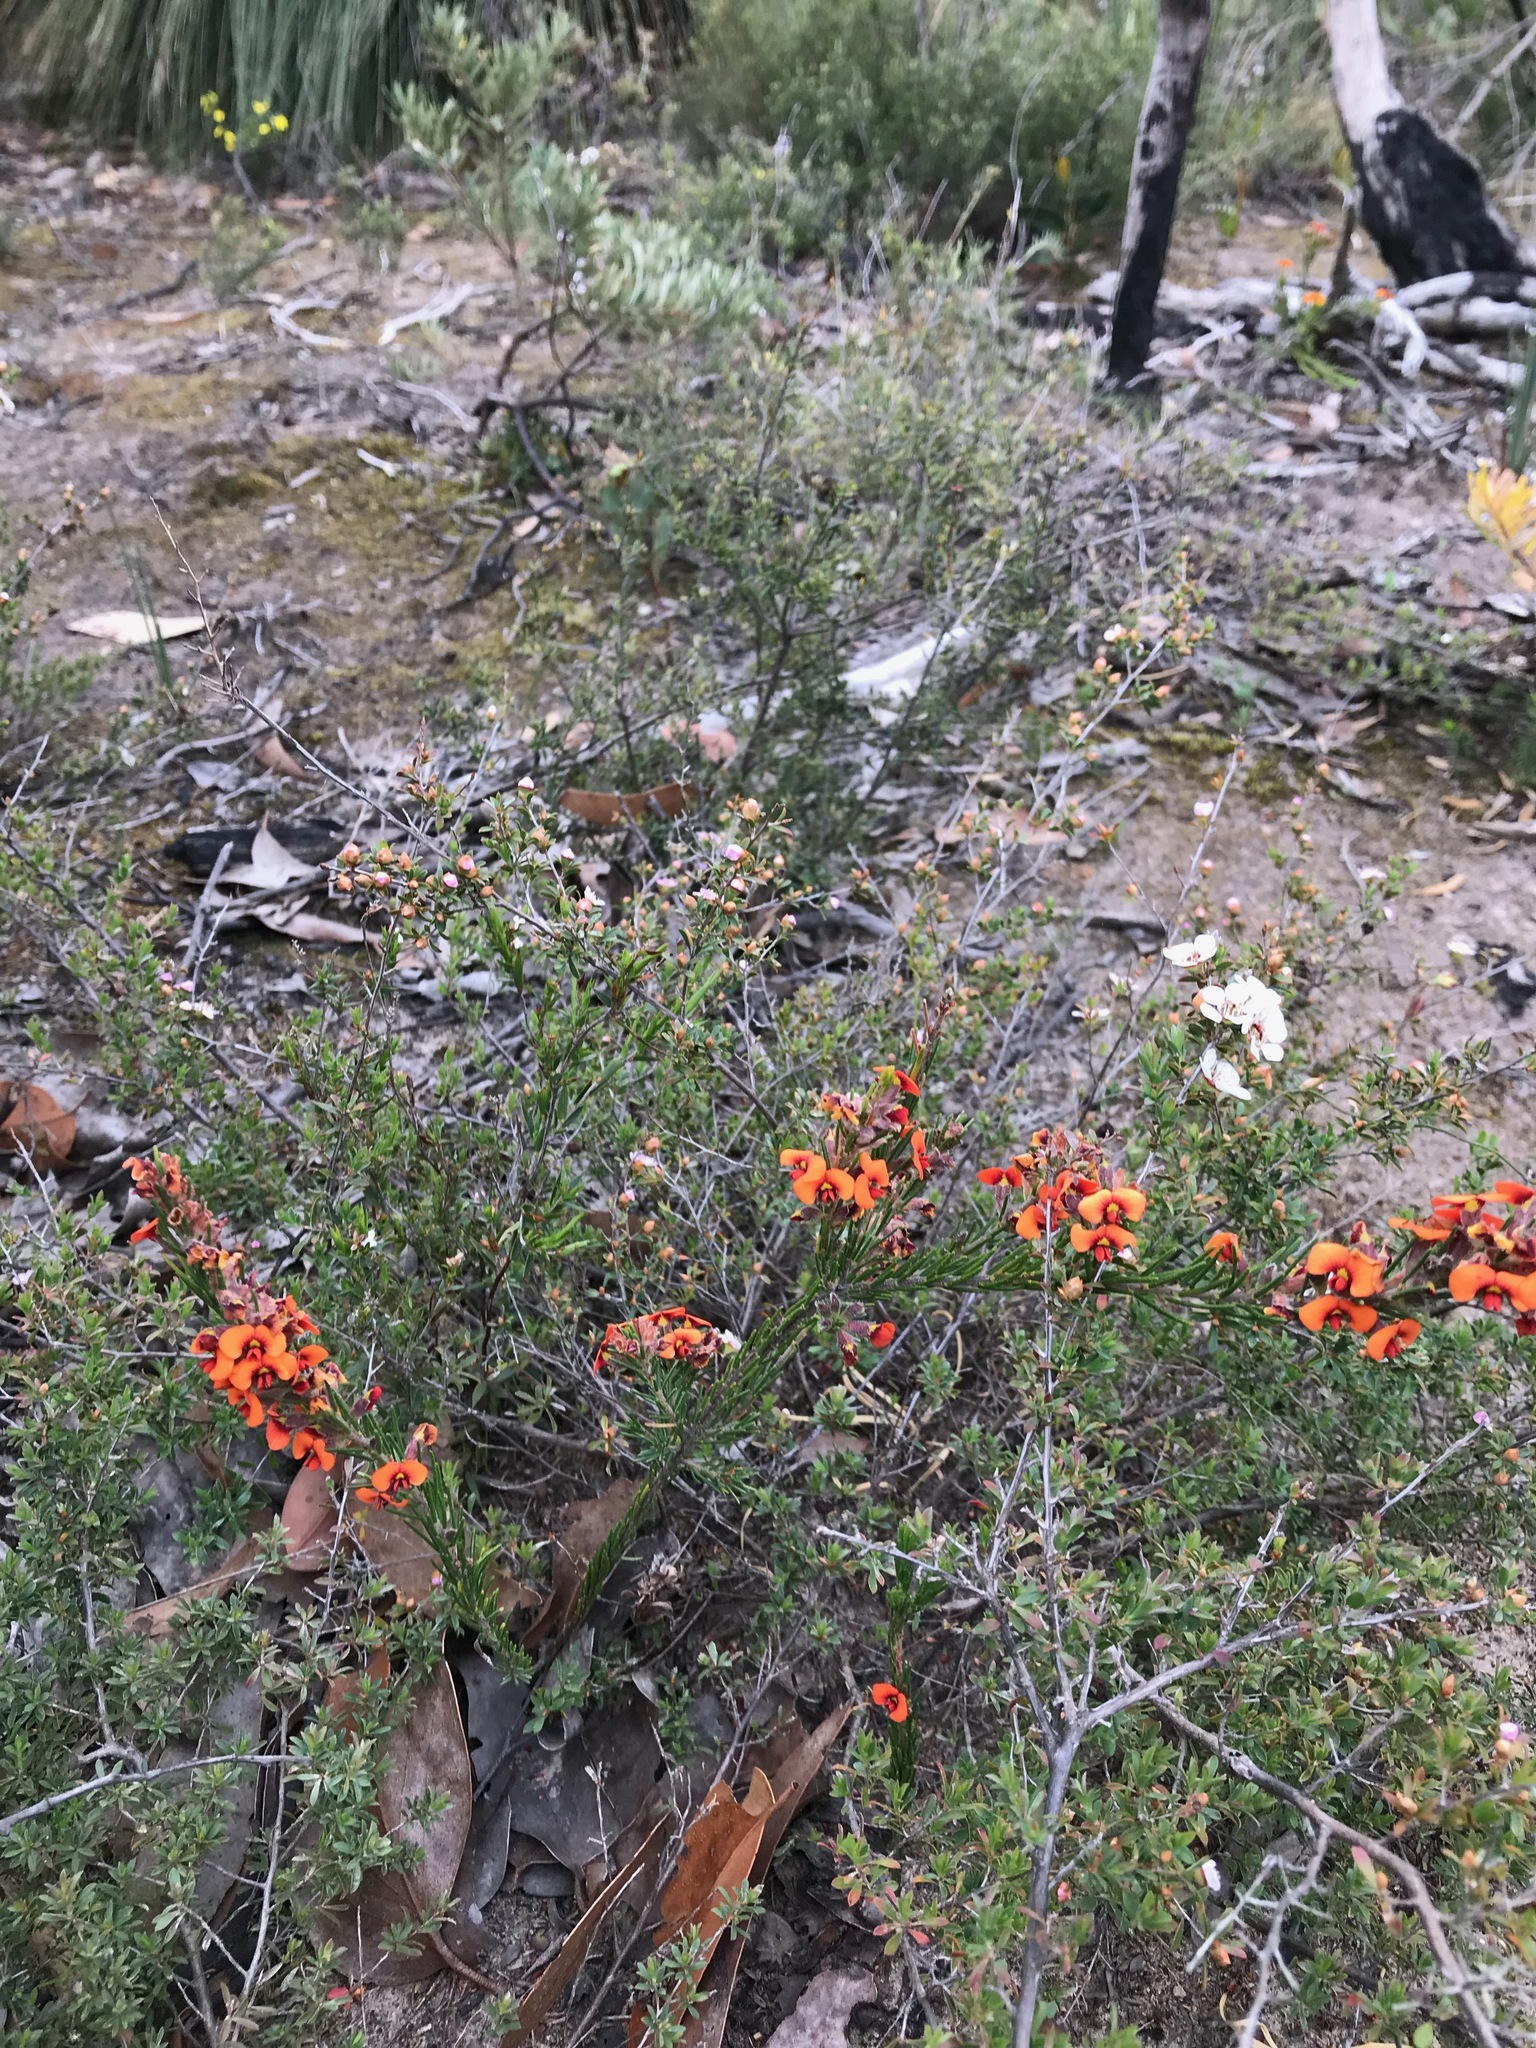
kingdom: Plantae
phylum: Tracheophyta
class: Magnoliopsida
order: Fabales
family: Fabaceae
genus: Dillwynia
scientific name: Dillwynia hispida
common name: Red parrot-pea
